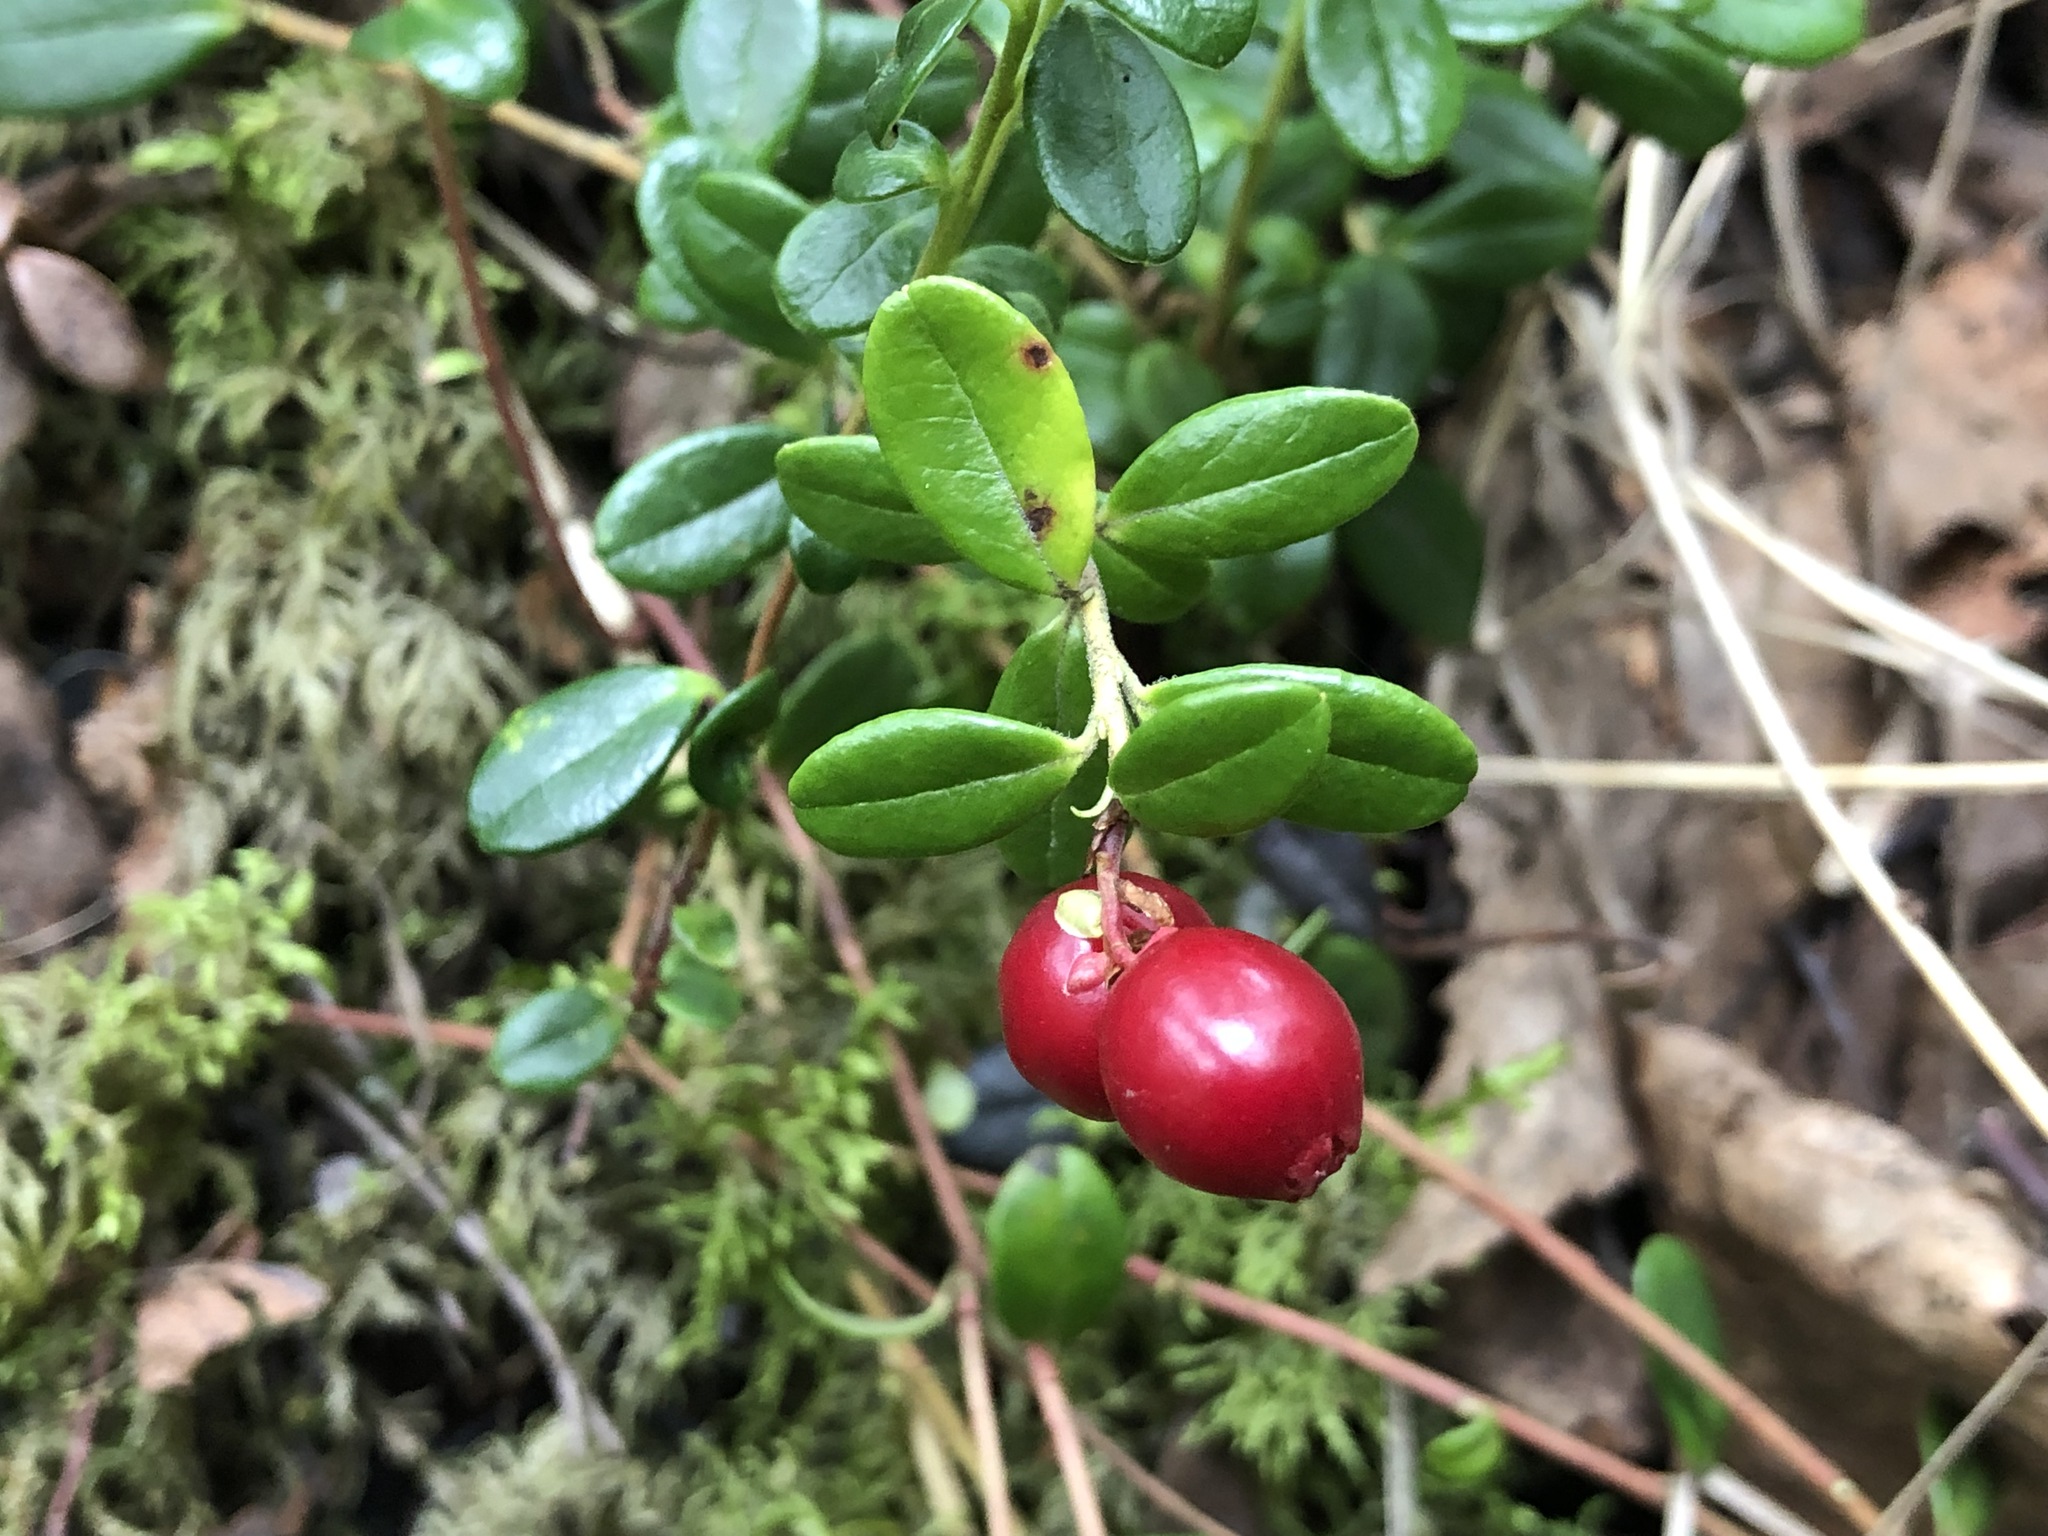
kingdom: Plantae
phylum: Tracheophyta
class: Magnoliopsida
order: Ericales
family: Ericaceae
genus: Vaccinium
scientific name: Vaccinium vitis-idaea
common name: Cowberry
